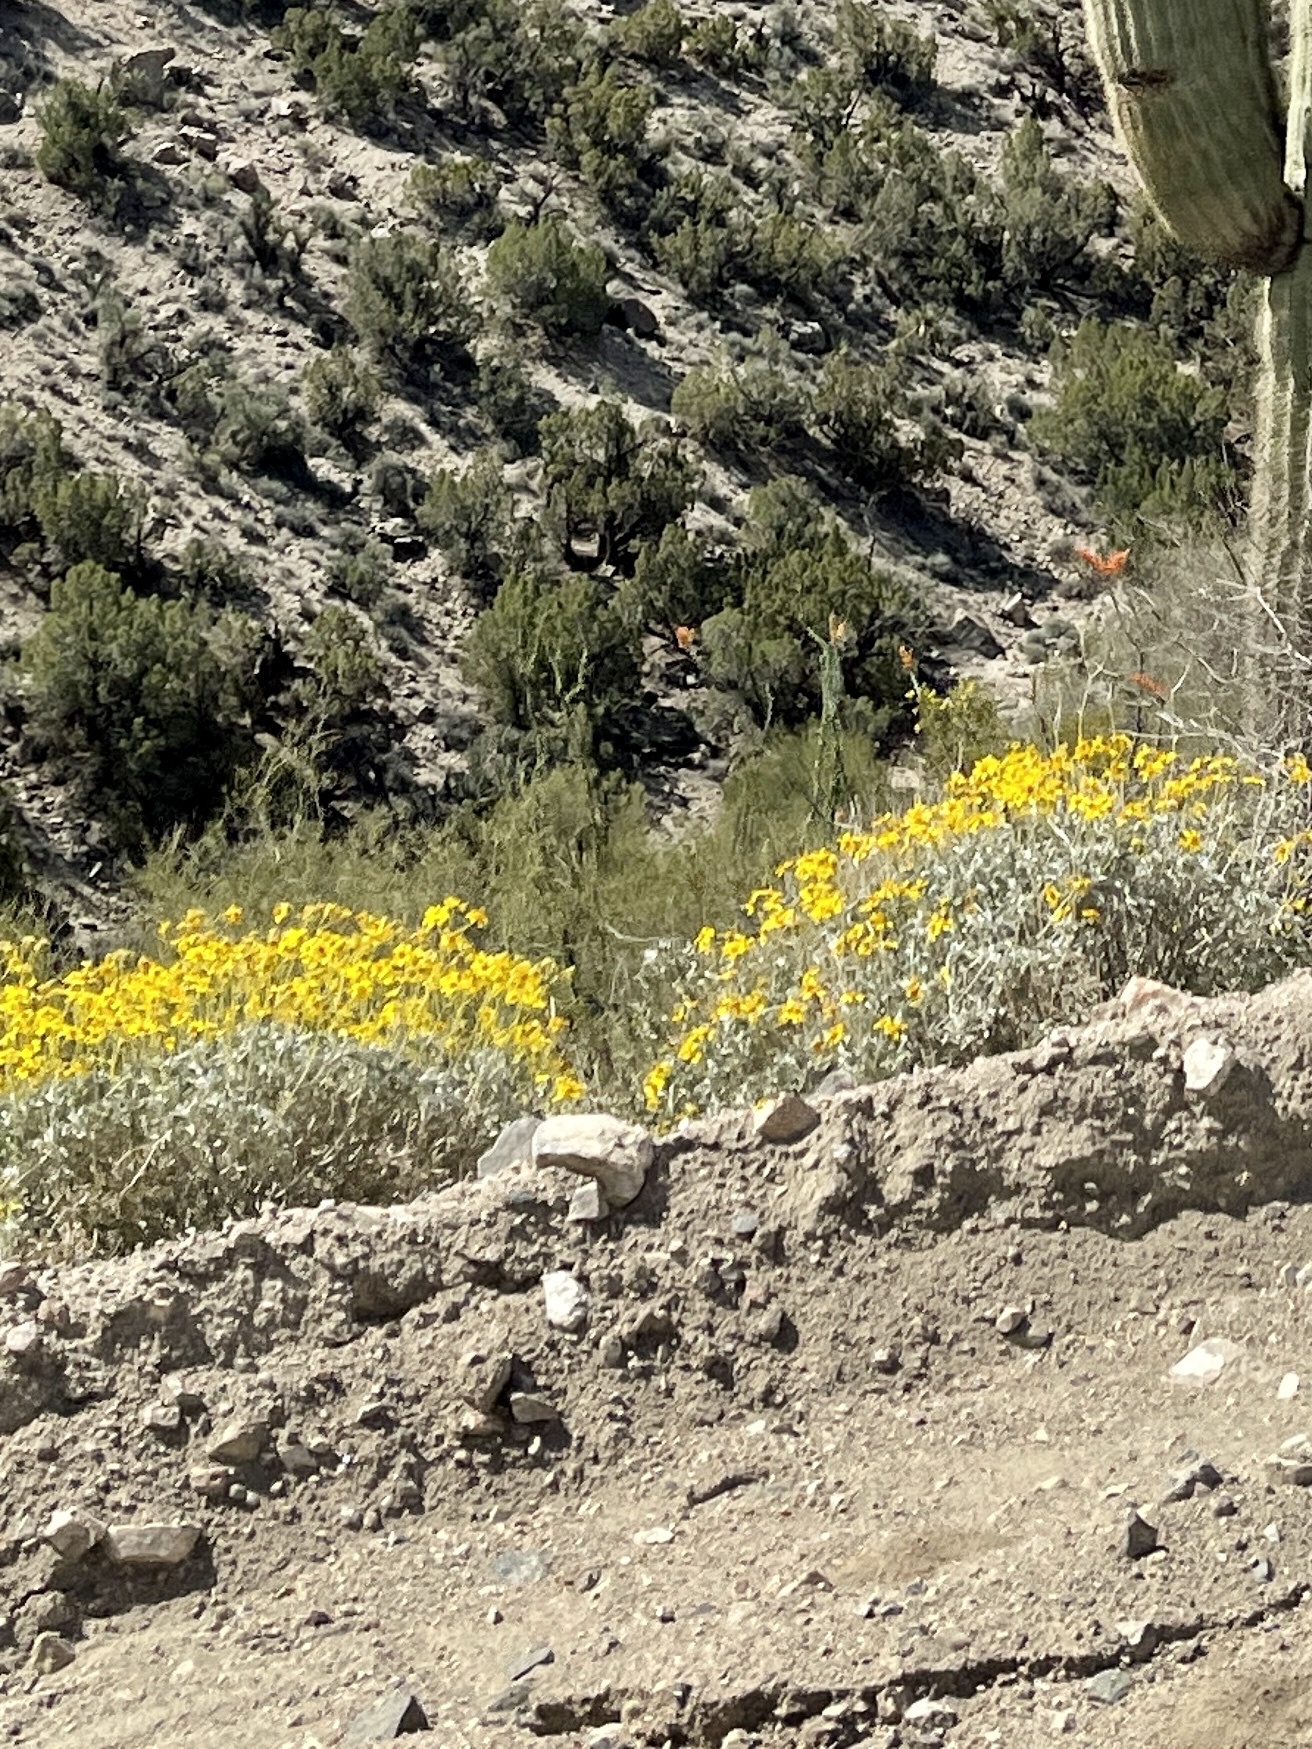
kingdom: Plantae
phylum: Tracheophyta
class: Magnoliopsida
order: Asterales
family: Asteraceae
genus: Encelia
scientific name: Encelia farinosa
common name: Brittlebush
